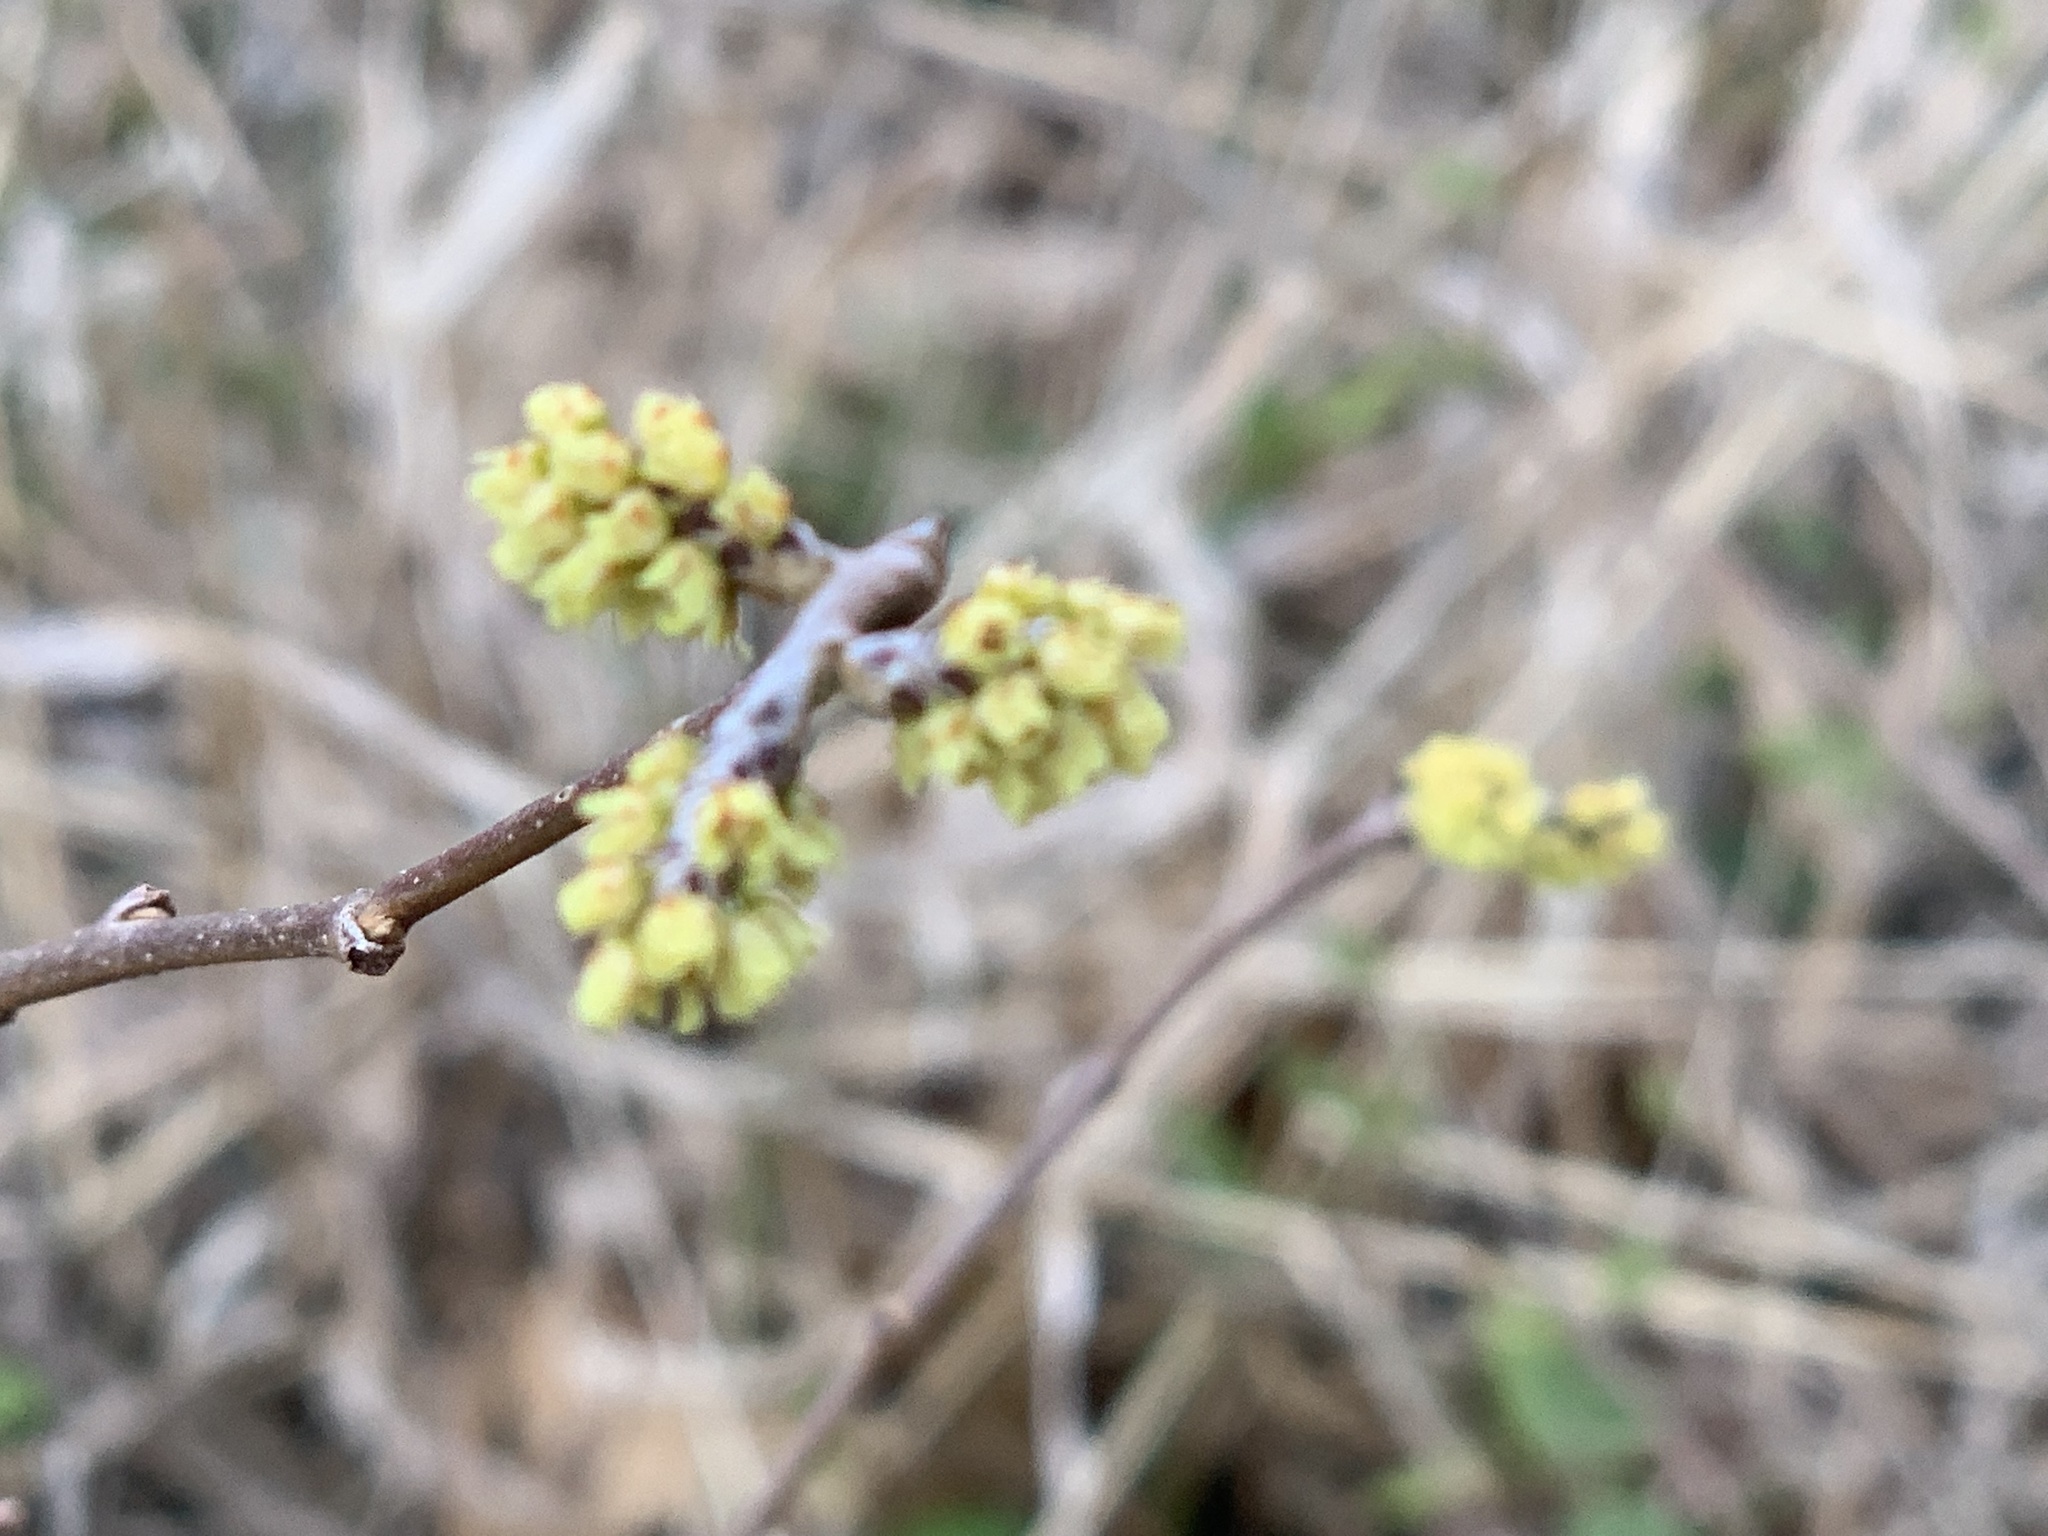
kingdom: Plantae
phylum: Tracheophyta
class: Magnoliopsida
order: Sapindales
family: Anacardiaceae
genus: Rhus
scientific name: Rhus aromatica
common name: Aromatic sumac
